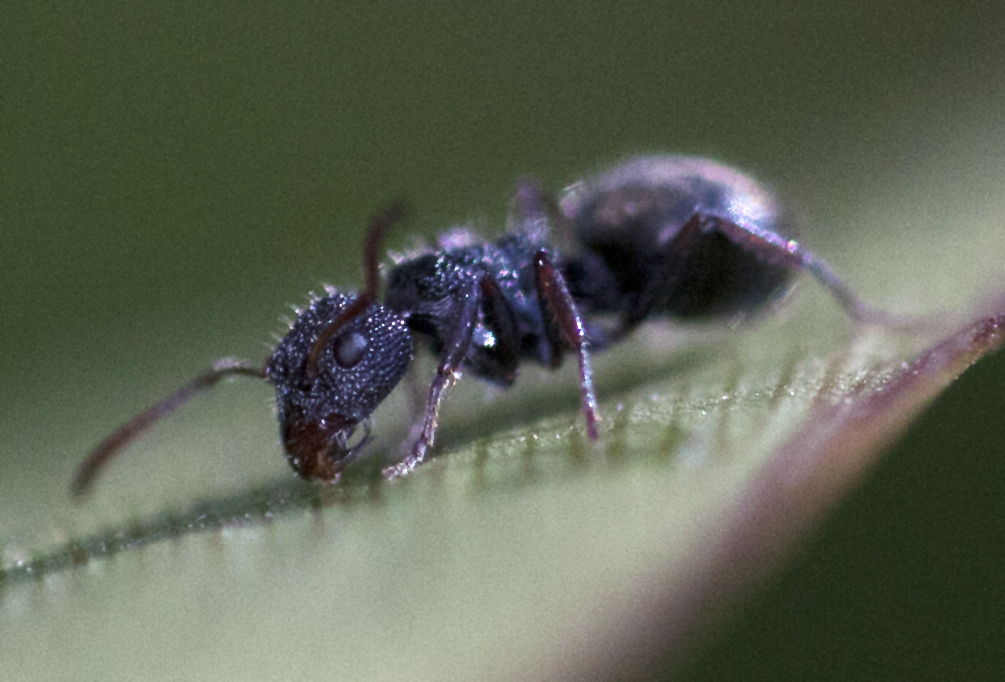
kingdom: Animalia
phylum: Arthropoda
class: Insecta
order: Hymenoptera
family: Formicidae
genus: Dolichoderus
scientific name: Dolichoderus scrobiculatus
